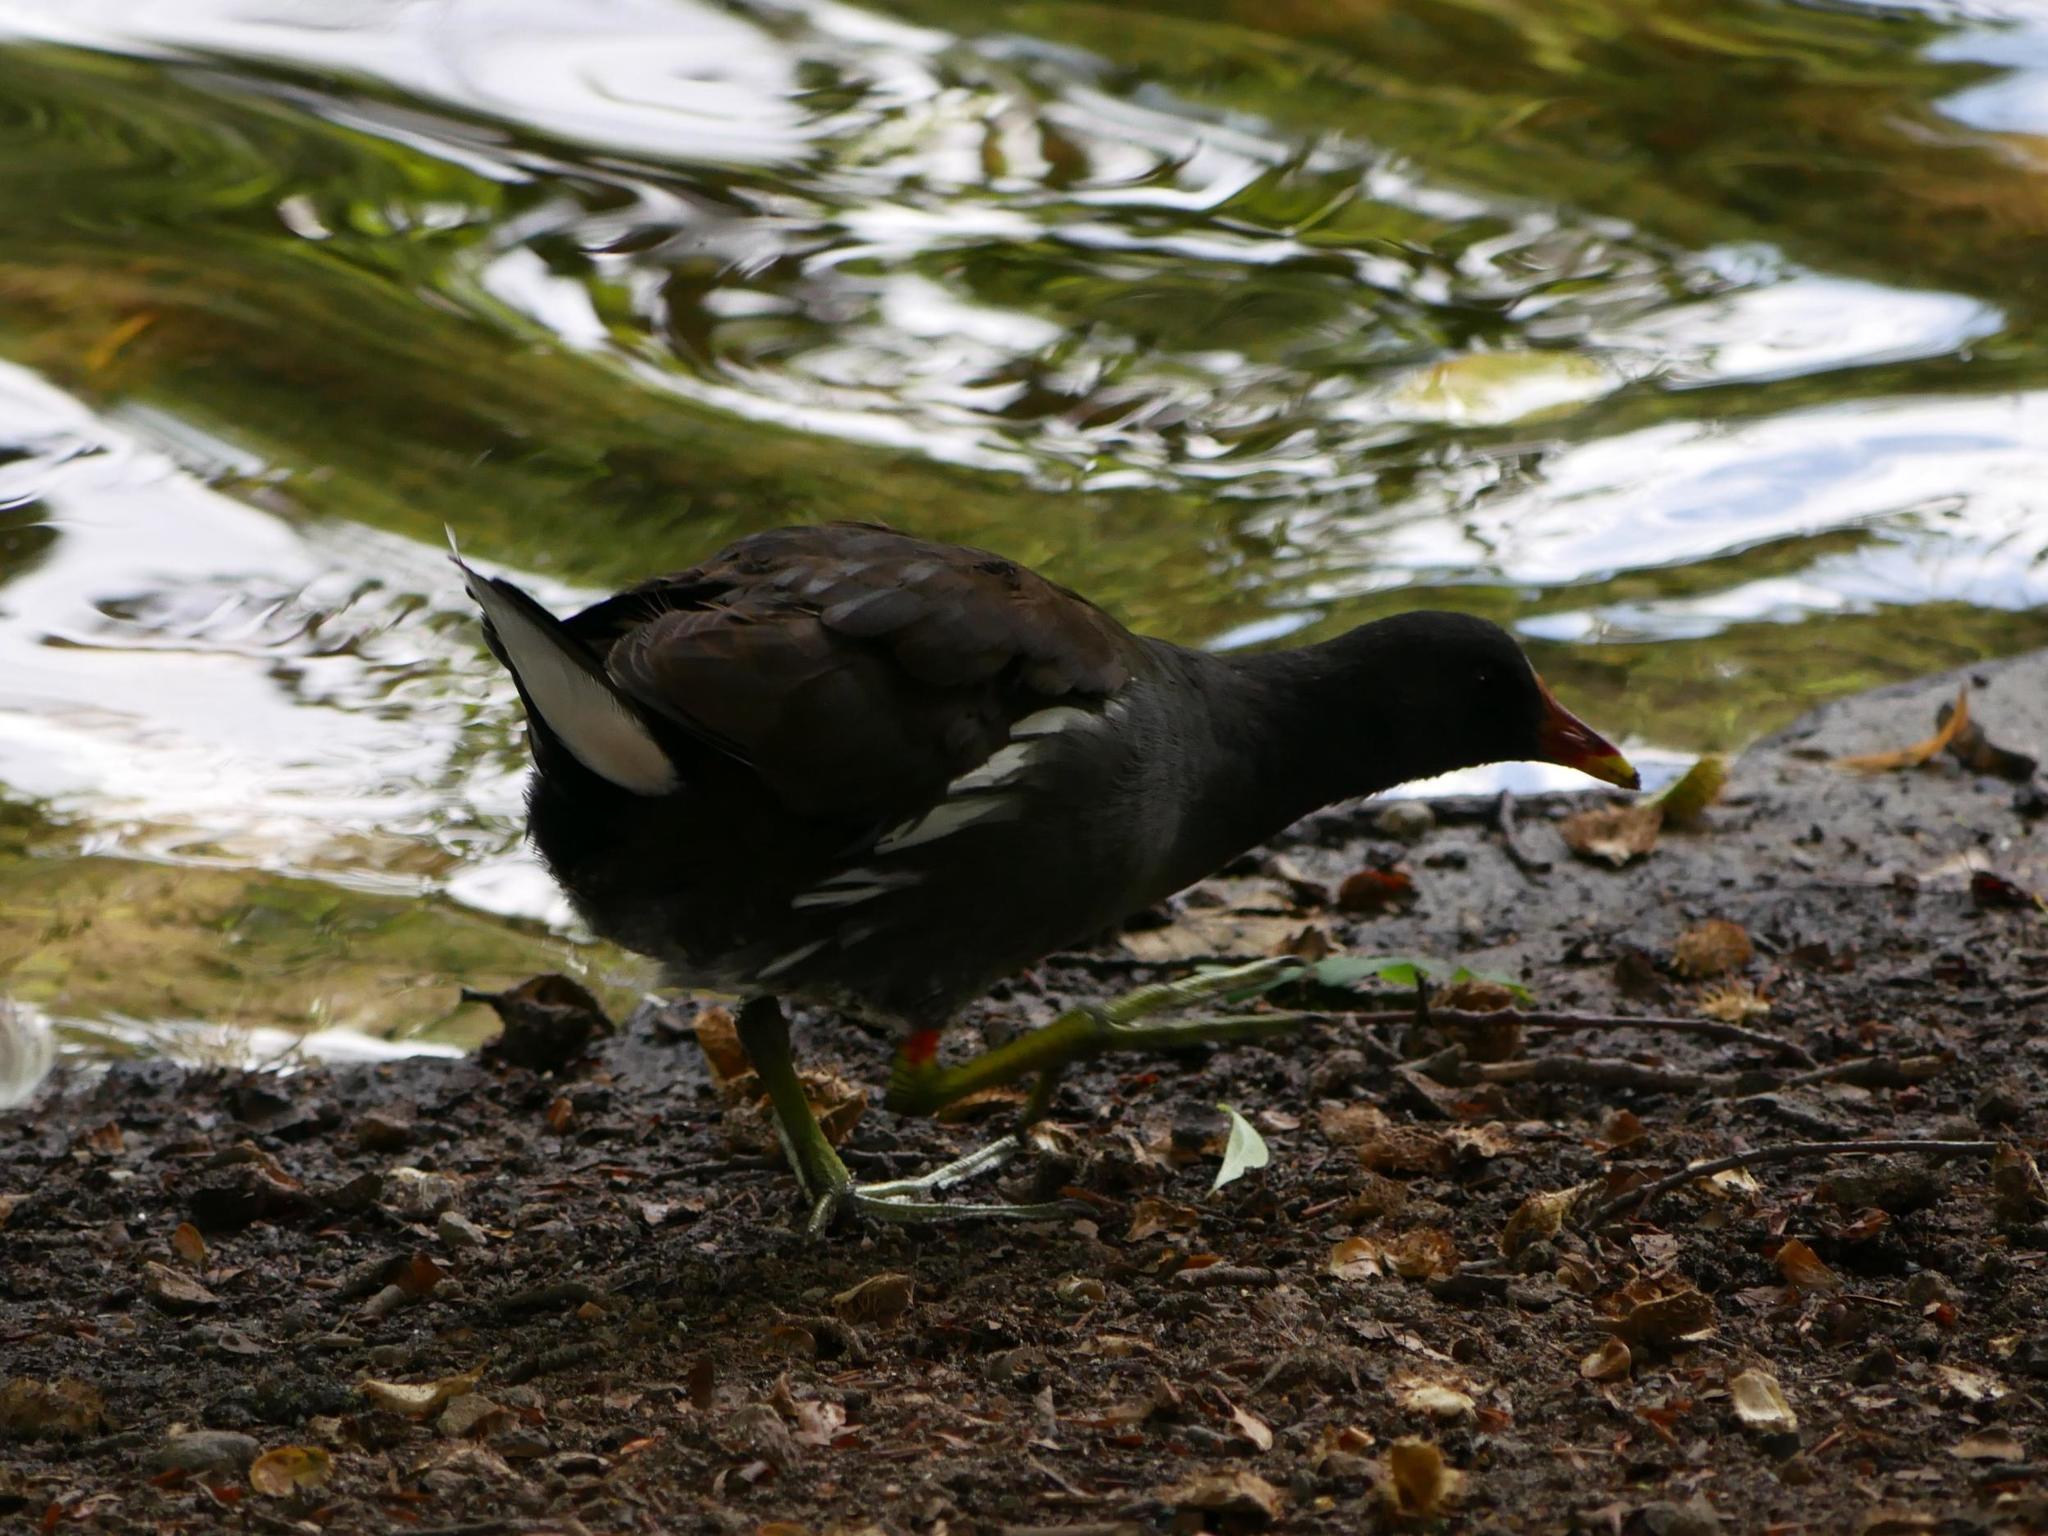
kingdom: Animalia
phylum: Chordata
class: Aves
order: Gruiformes
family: Rallidae
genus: Gallinula
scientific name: Gallinula chloropus
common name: Common moorhen
